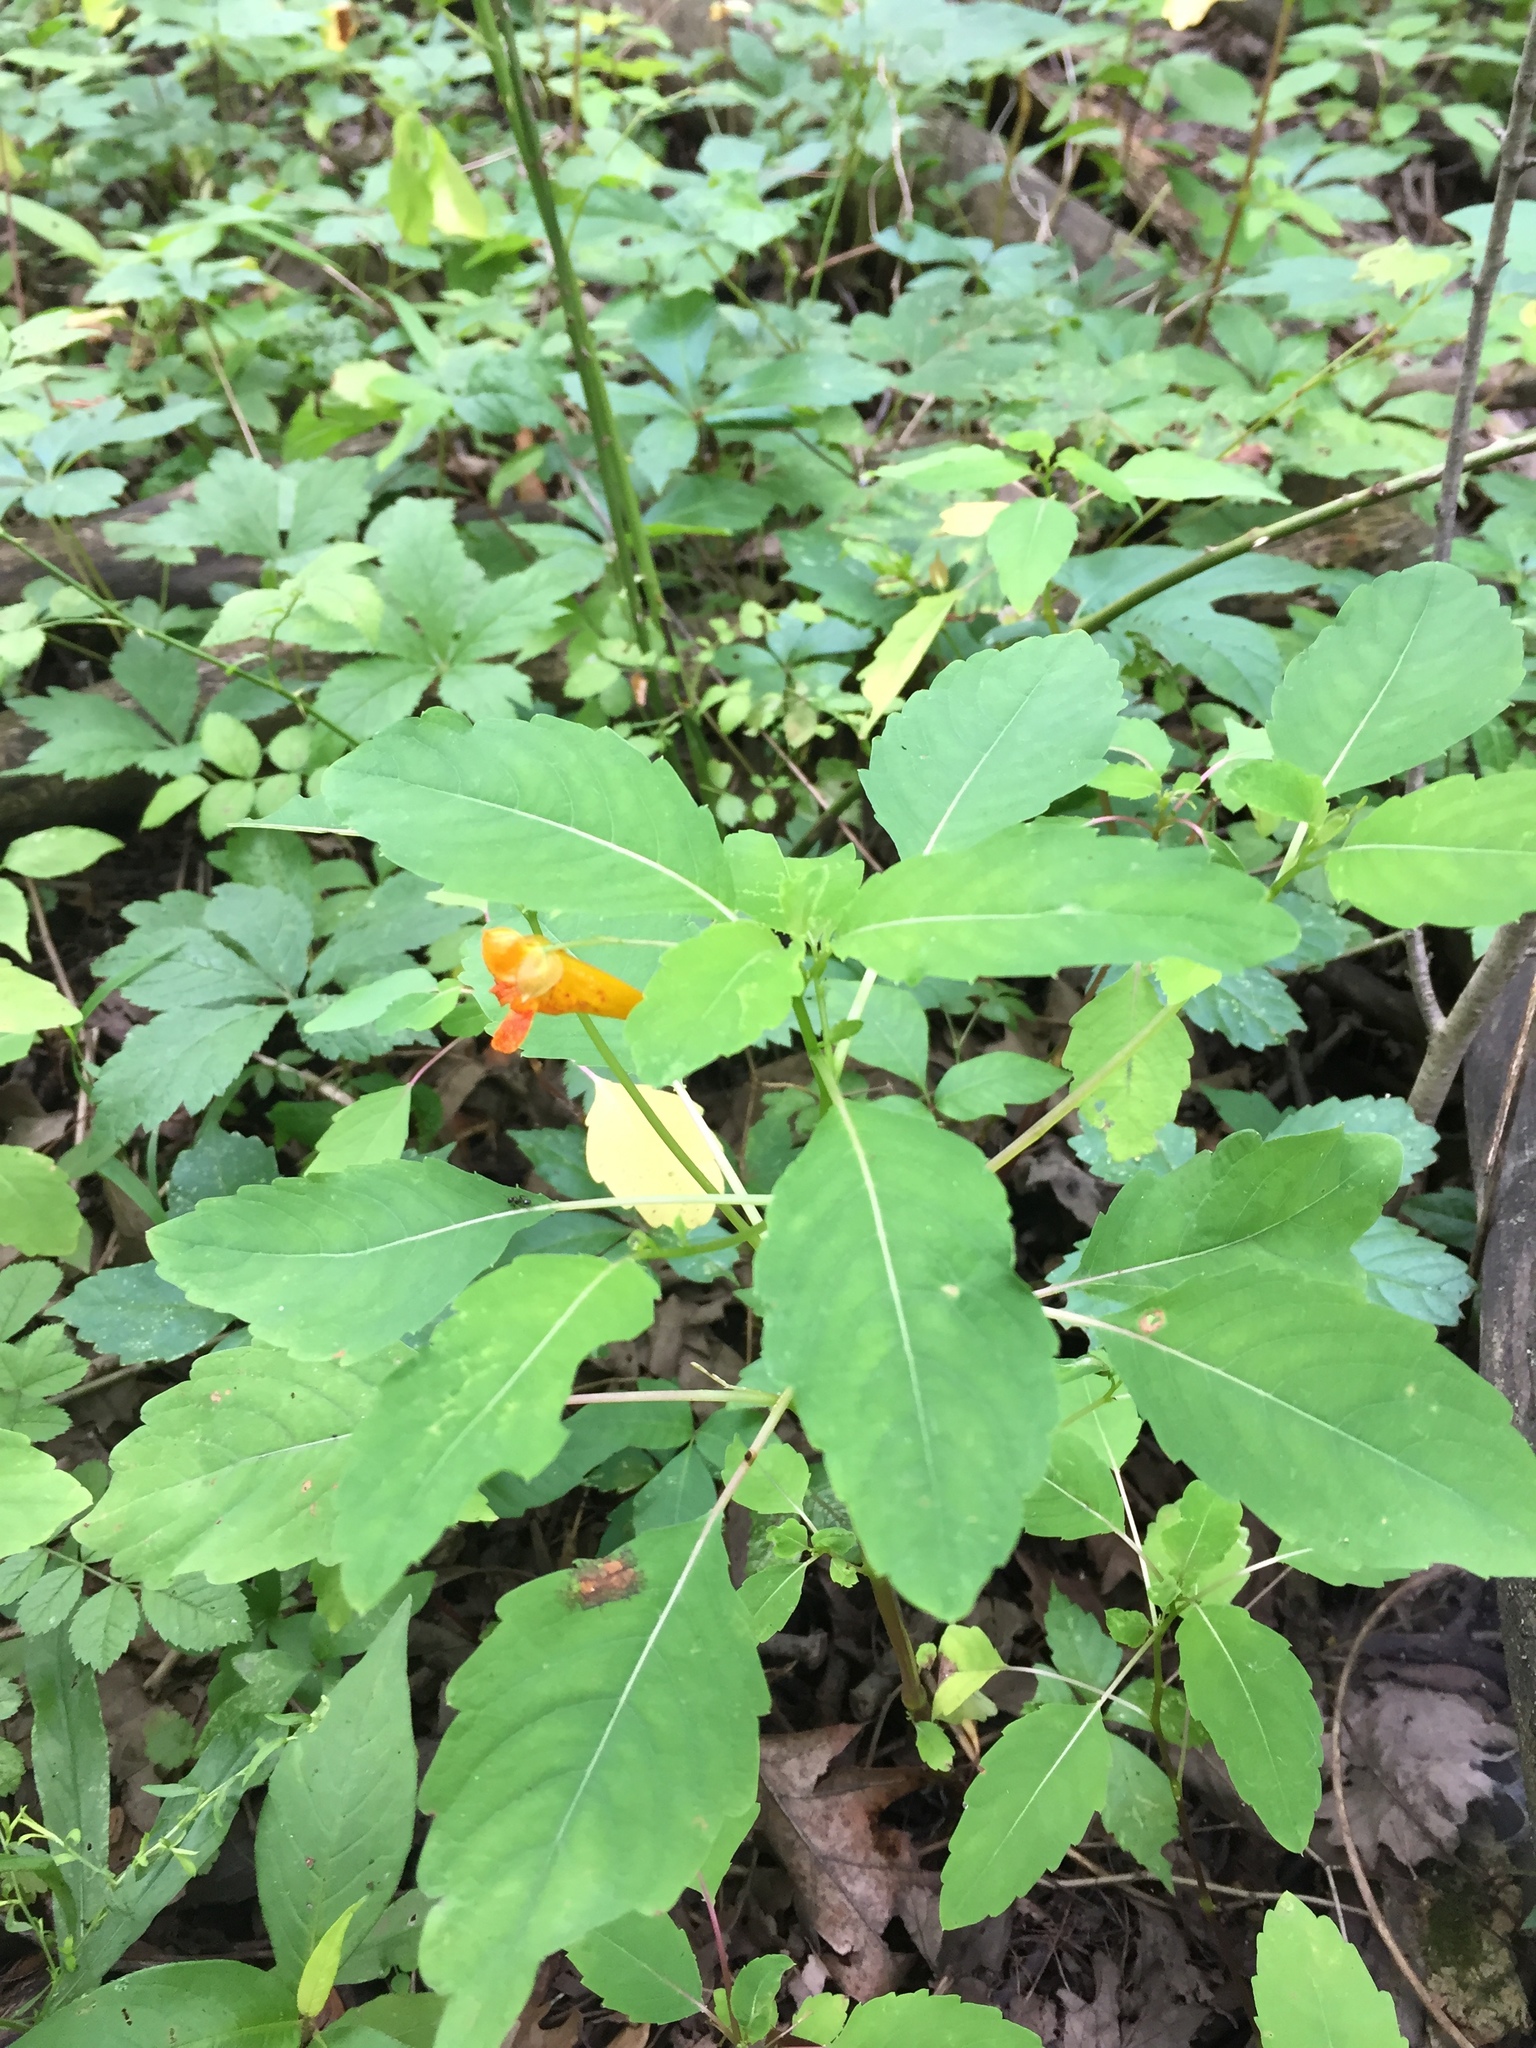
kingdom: Plantae
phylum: Tracheophyta
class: Magnoliopsida
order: Ericales
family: Balsaminaceae
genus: Impatiens
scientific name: Impatiens capensis
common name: Orange balsam
